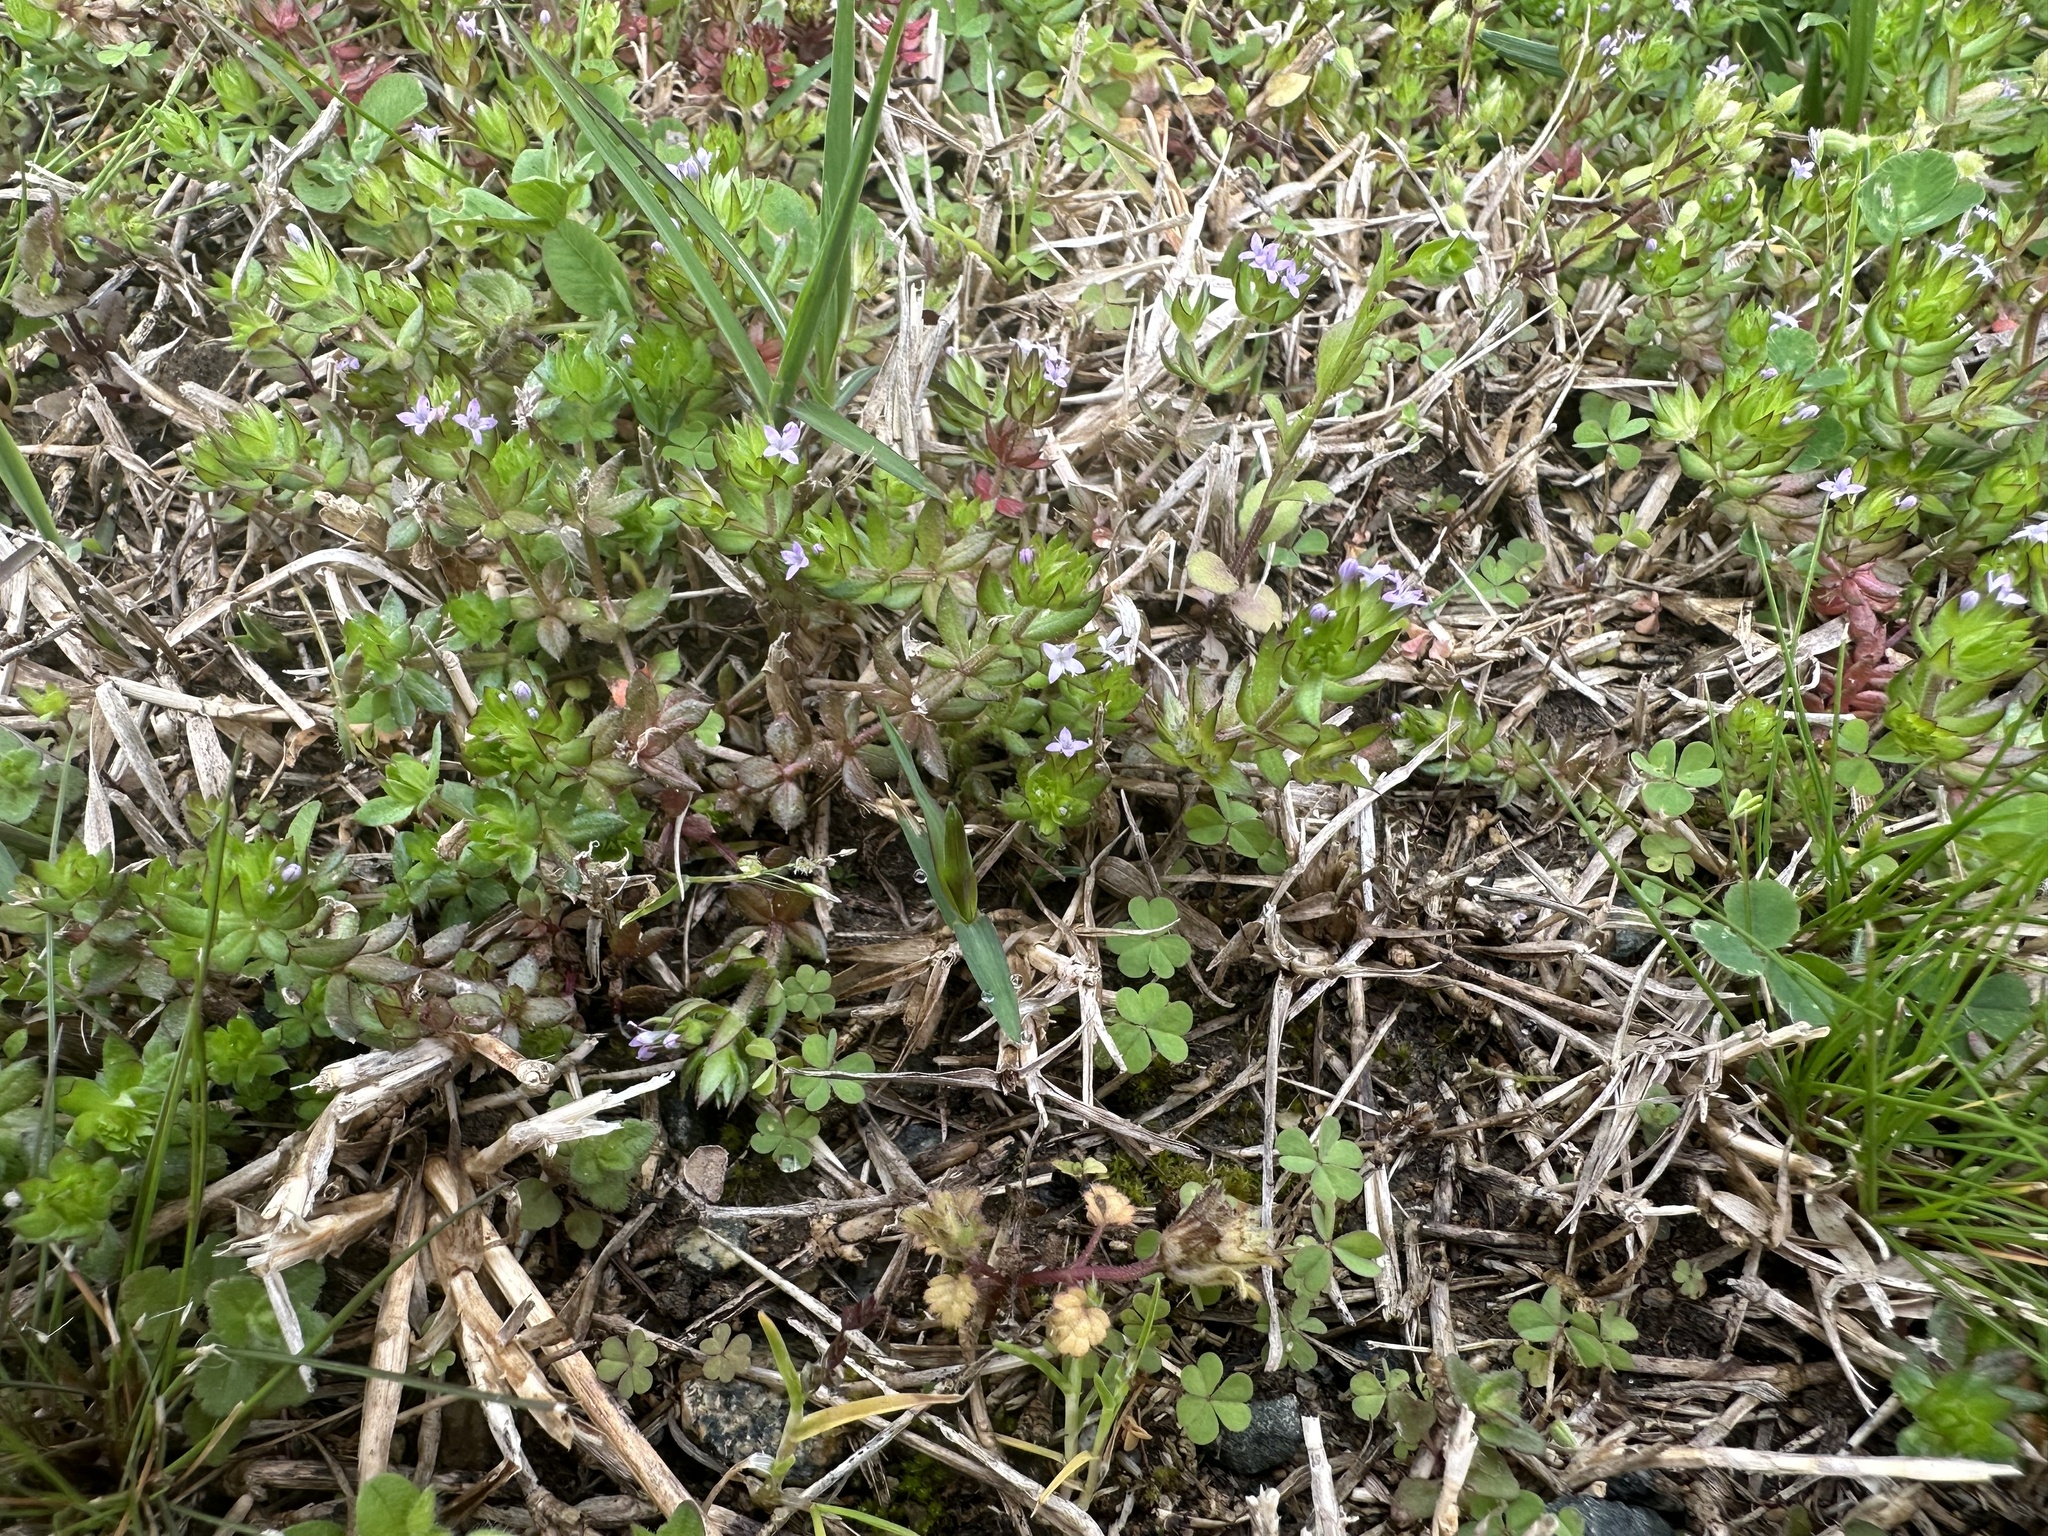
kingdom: Plantae
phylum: Tracheophyta
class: Magnoliopsida
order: Gentianales
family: Rubiaceae
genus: Sherardia
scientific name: Sherardia arvensis
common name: Field madder
